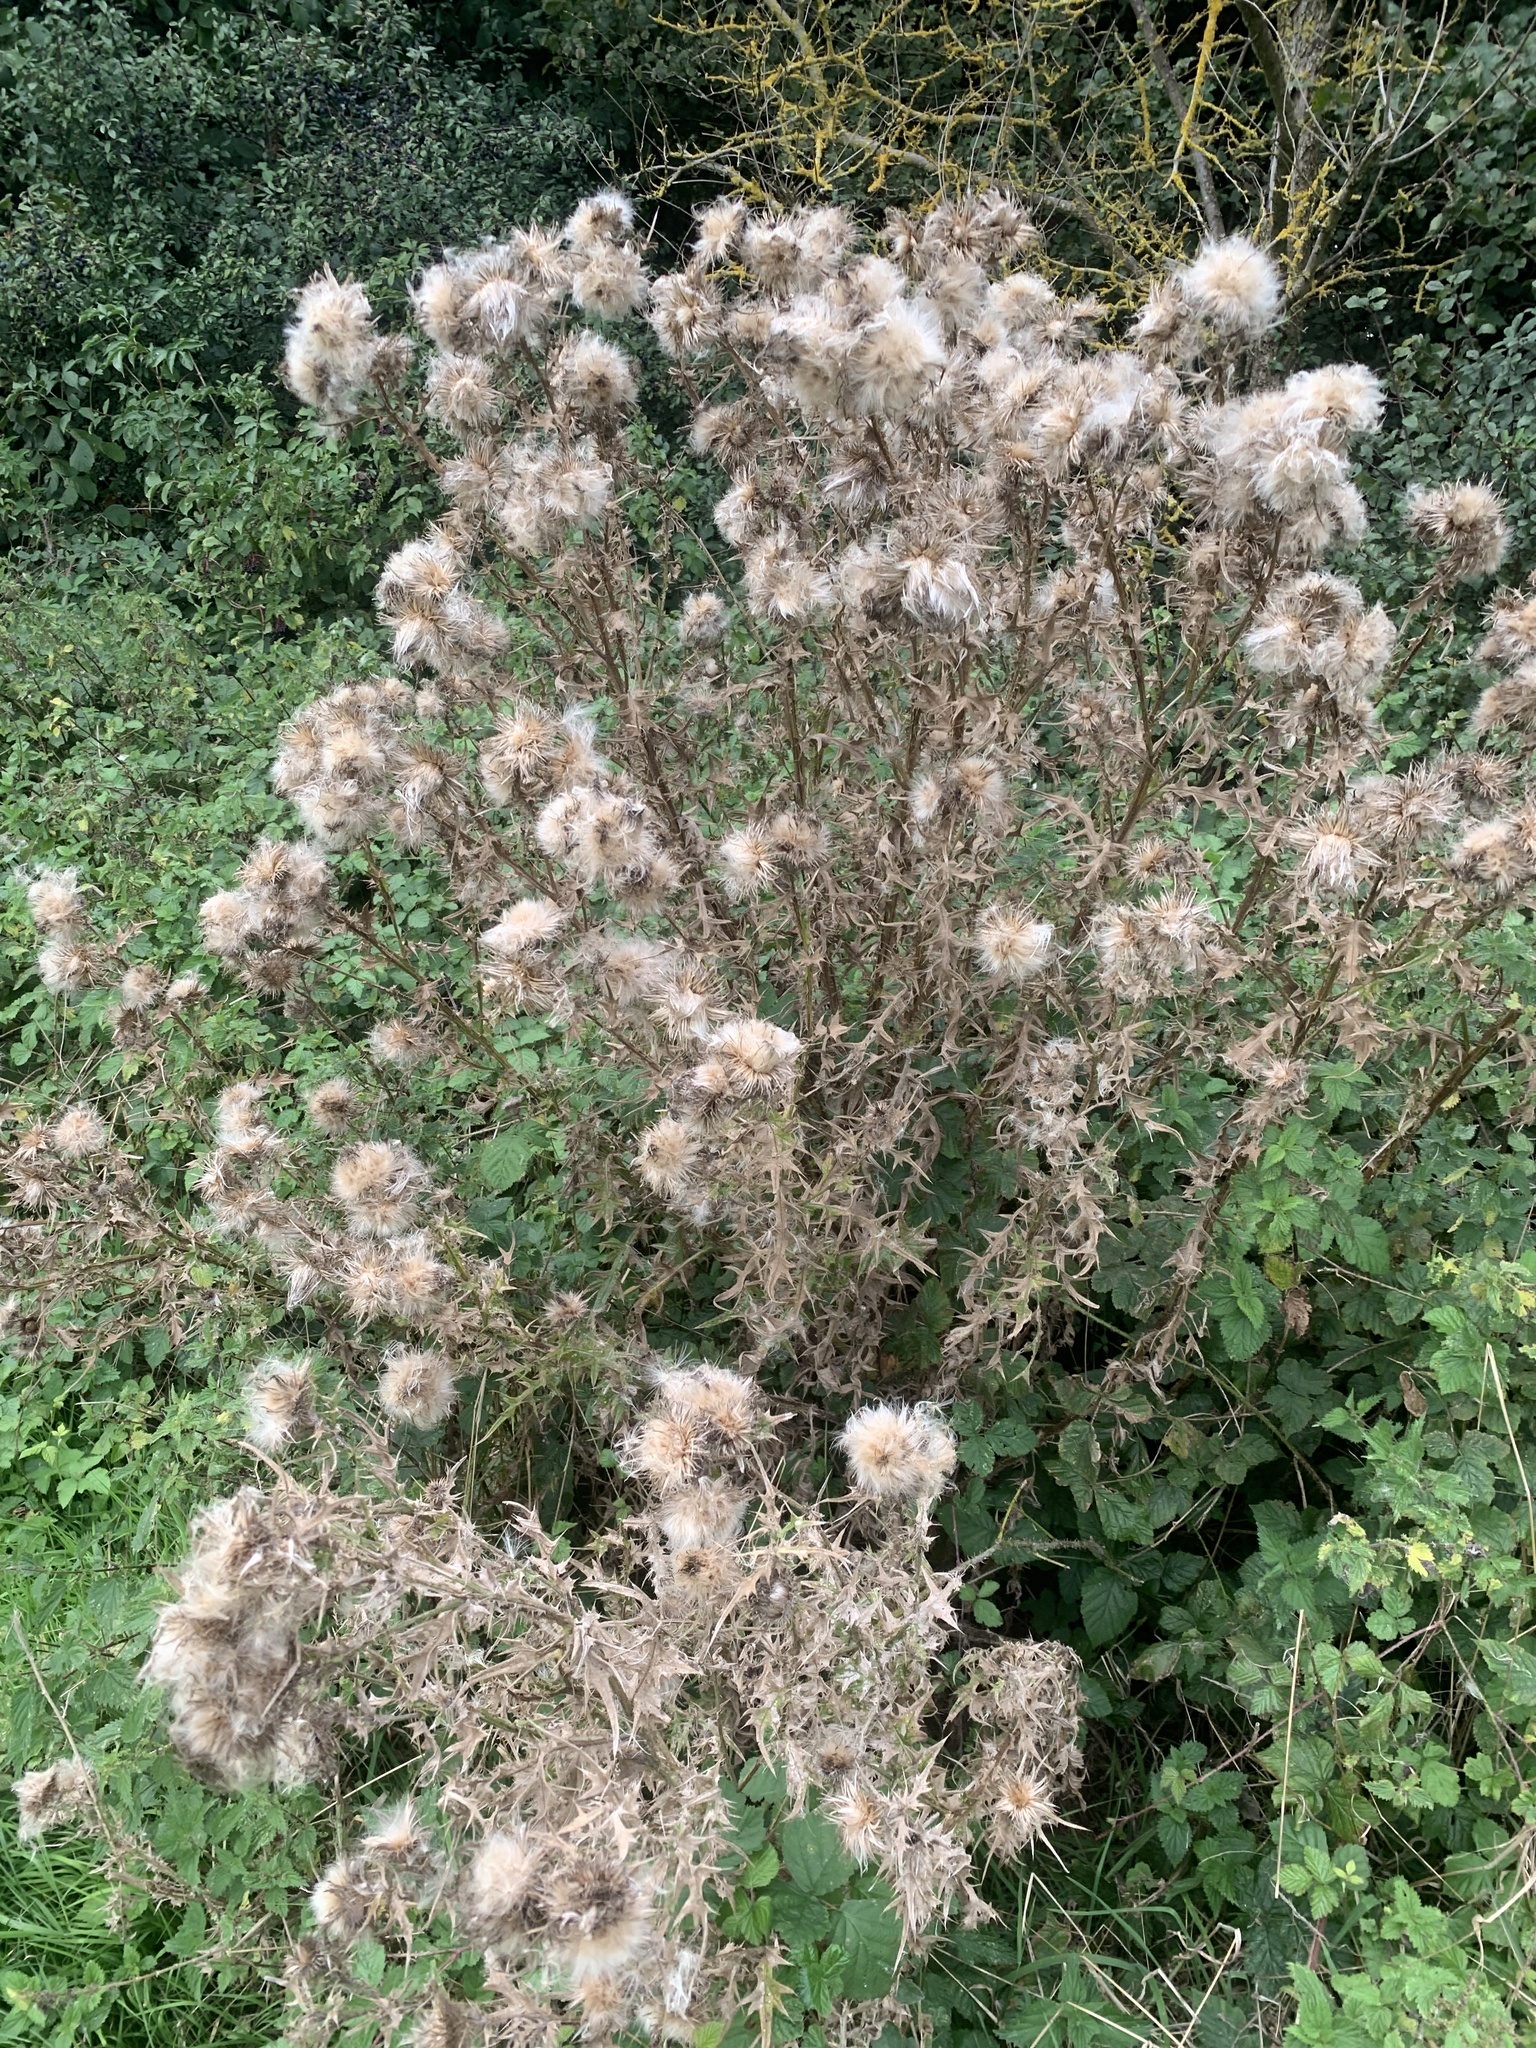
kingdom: Plantae
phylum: Tracheophyta
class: Magnoliopsida
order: Asterales
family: Asteraceae
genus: Cirsium
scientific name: Cirsium vulgare
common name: Bull thistle
